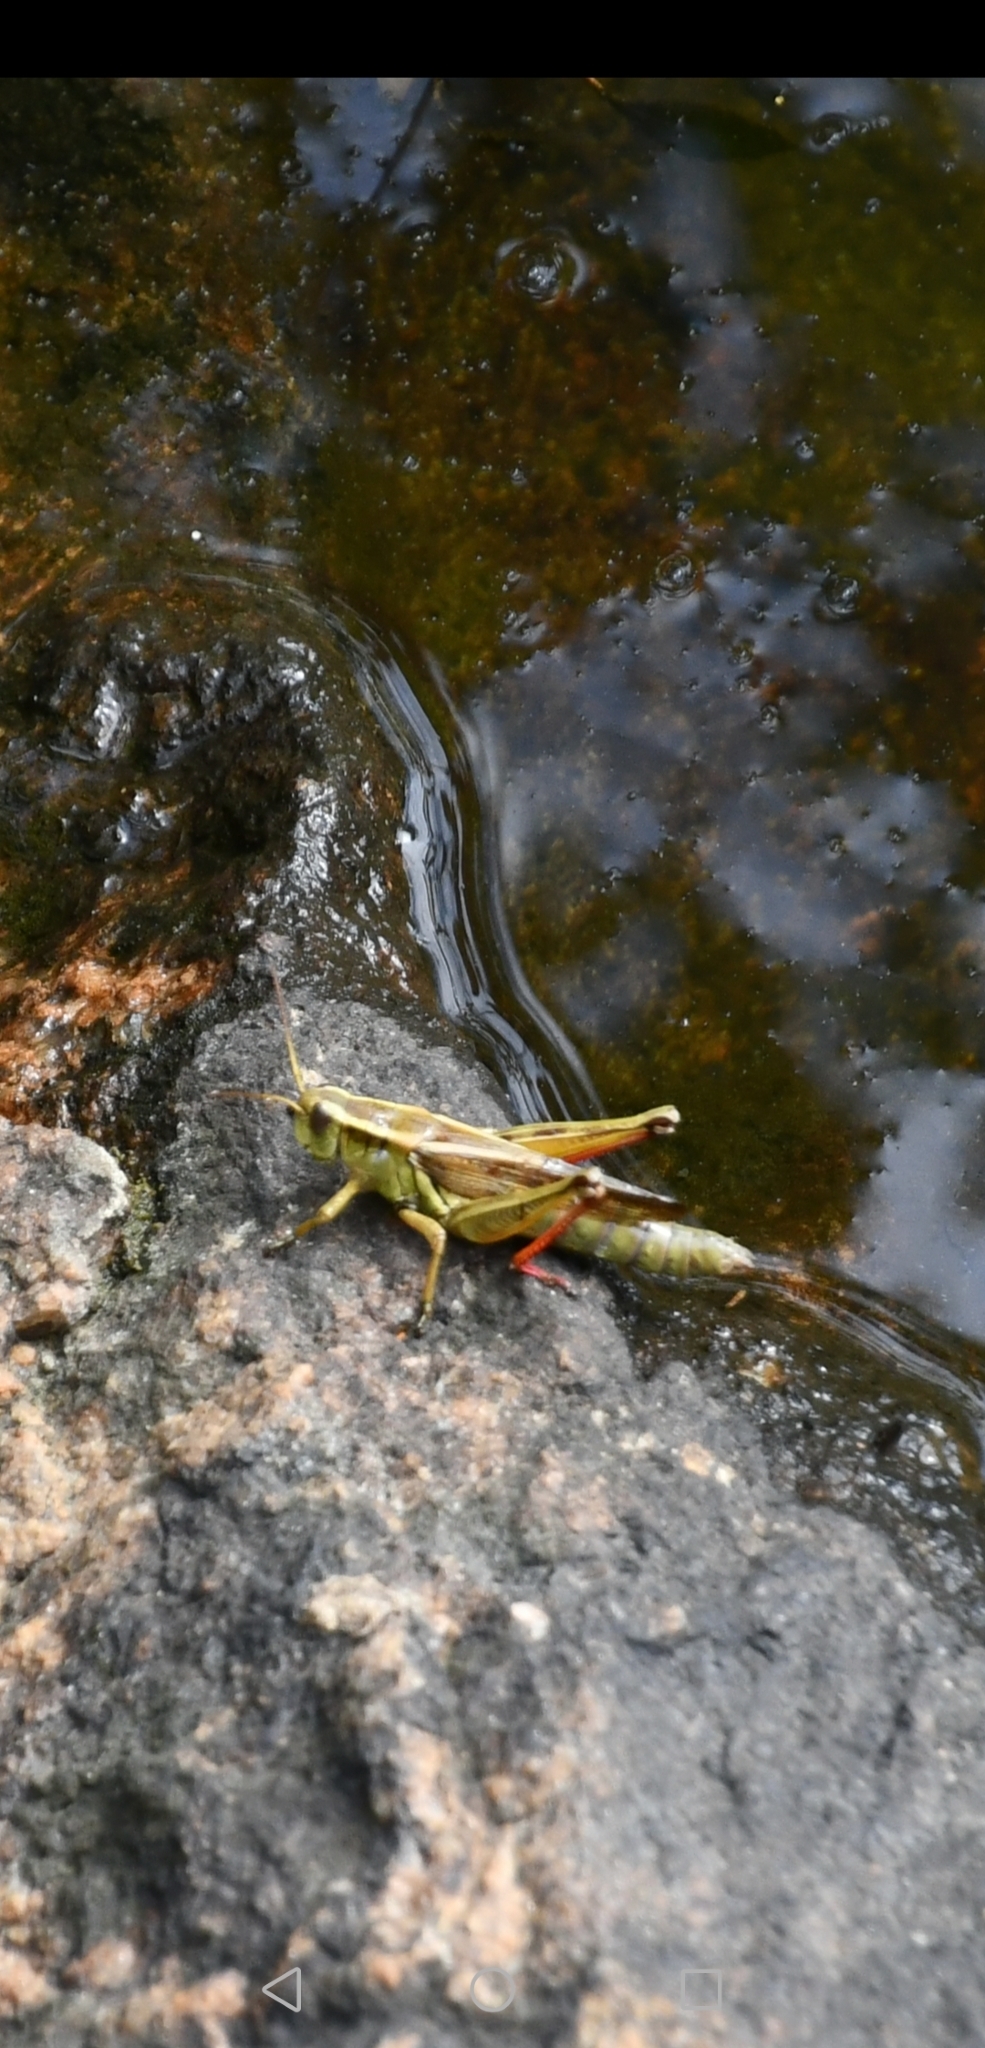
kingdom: Animalia
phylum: Arthropoda
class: Insecta
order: Orthoptera
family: Acrididae
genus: Melanoplus
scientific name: Melanoplus bivittatus
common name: Two-striped grasshopper
